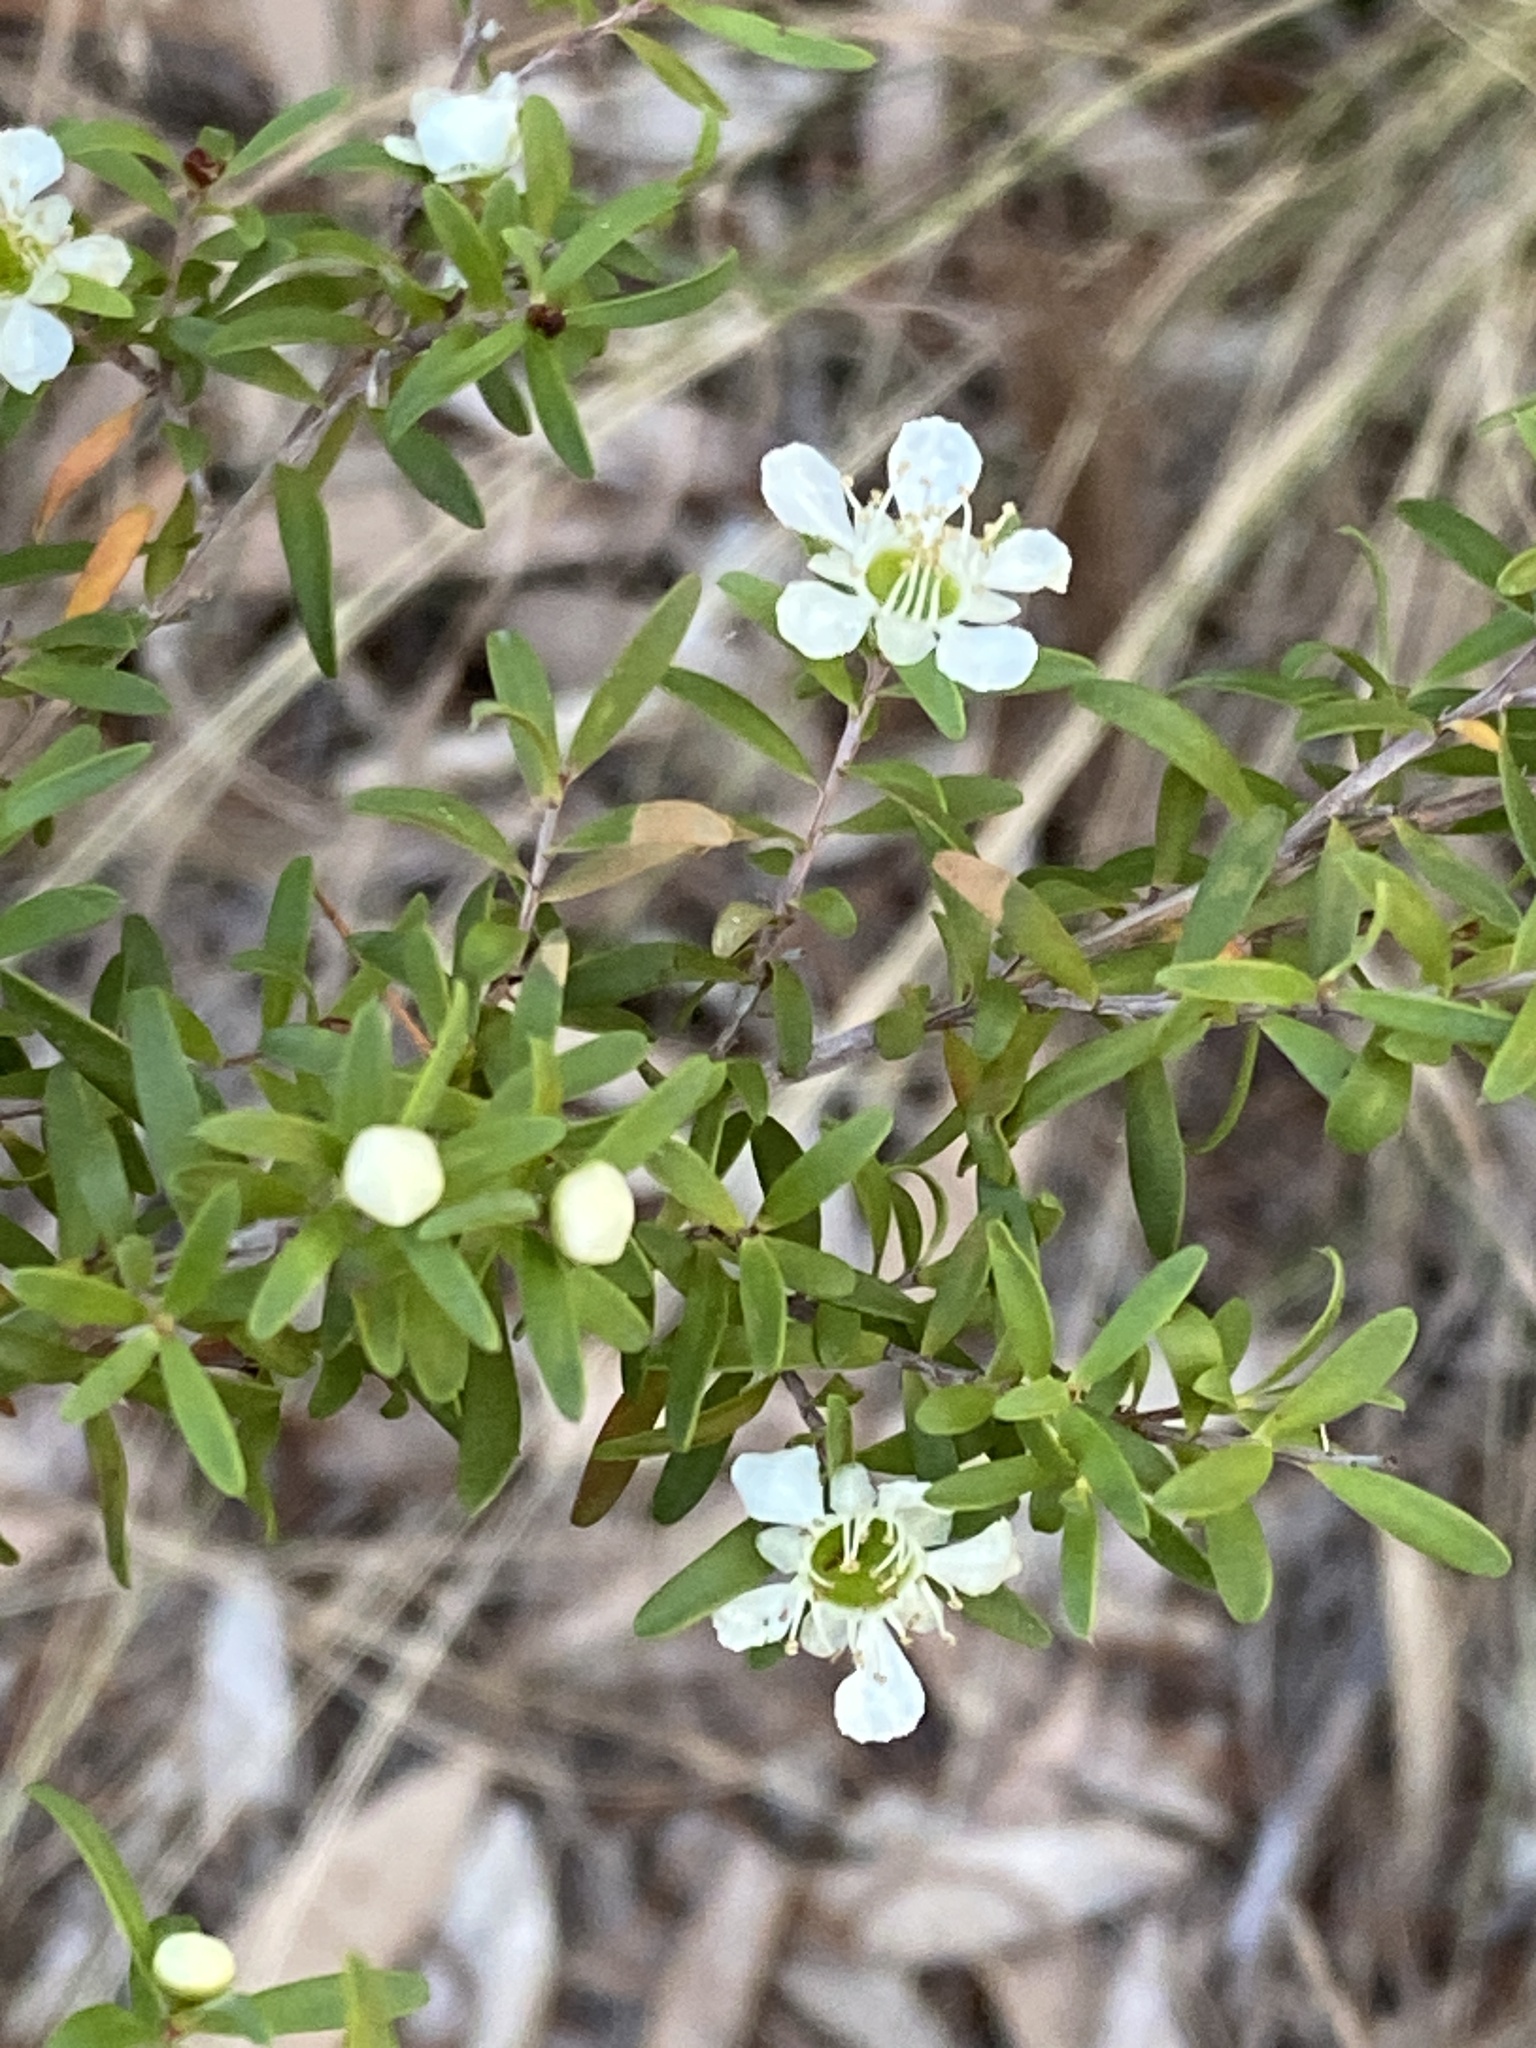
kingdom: Plantae
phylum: Tracheophyta
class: Magnoliopsida
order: Myrtales
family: Myrtaceae
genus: Leptospermum
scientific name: Leptospermum polygalifolium
